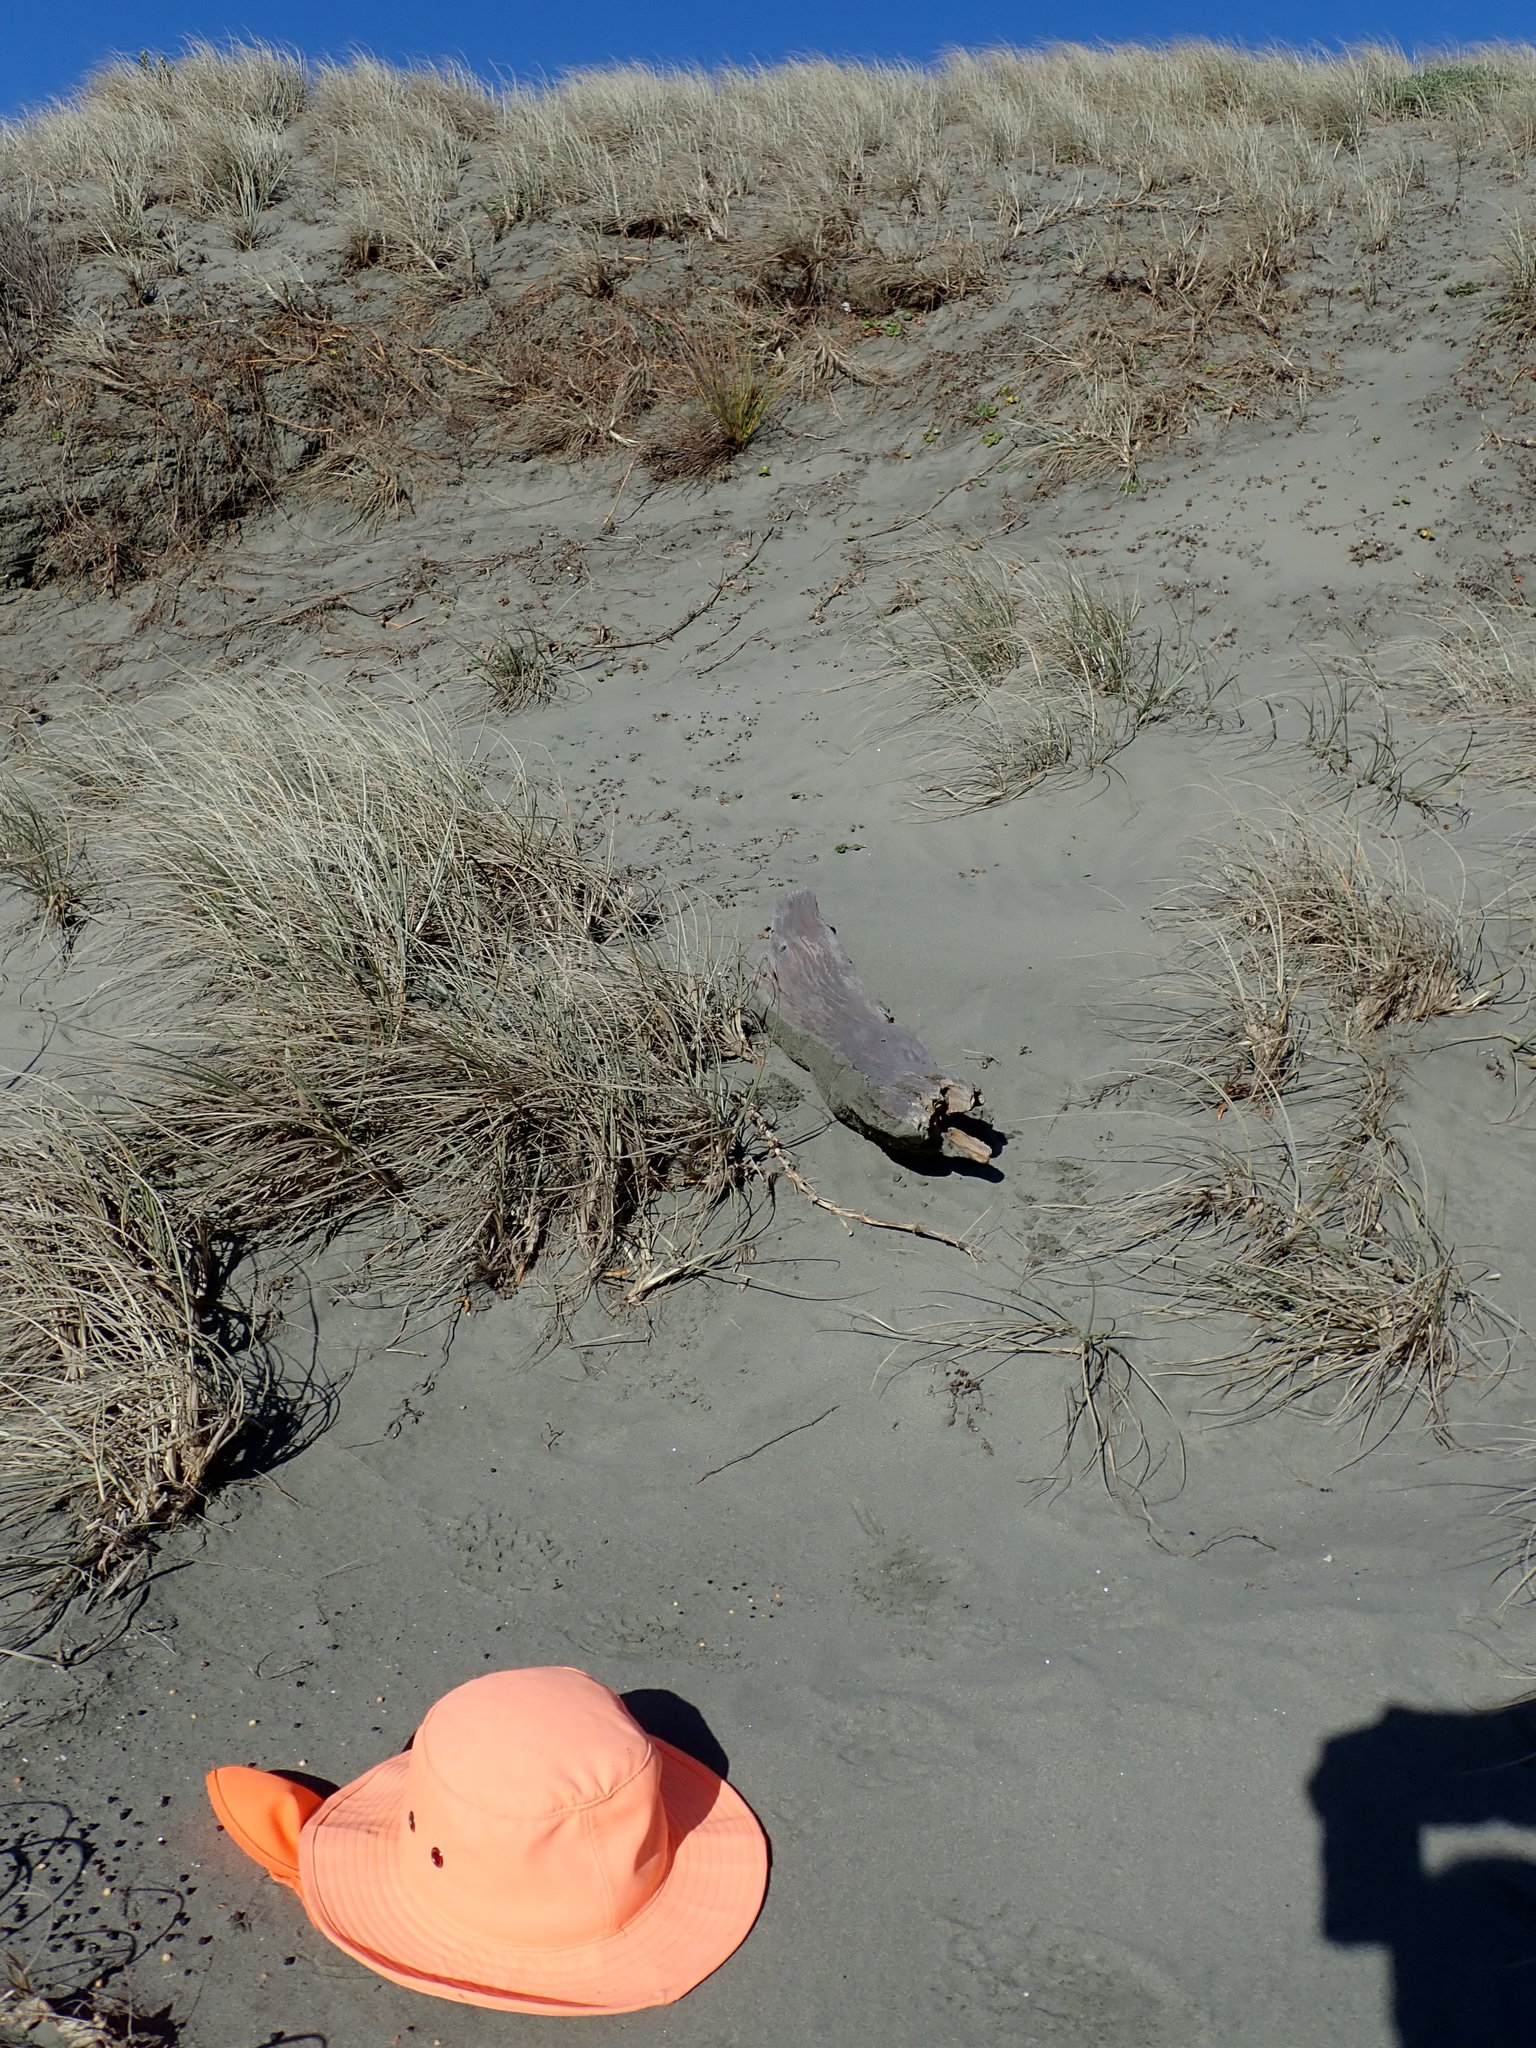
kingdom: Plantae
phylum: Tracheophyta
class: Magnoliopsida
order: Solanales
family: Convolvulaceae
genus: Calystegia
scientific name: Calystegia soldanella
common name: Sea bindweed
